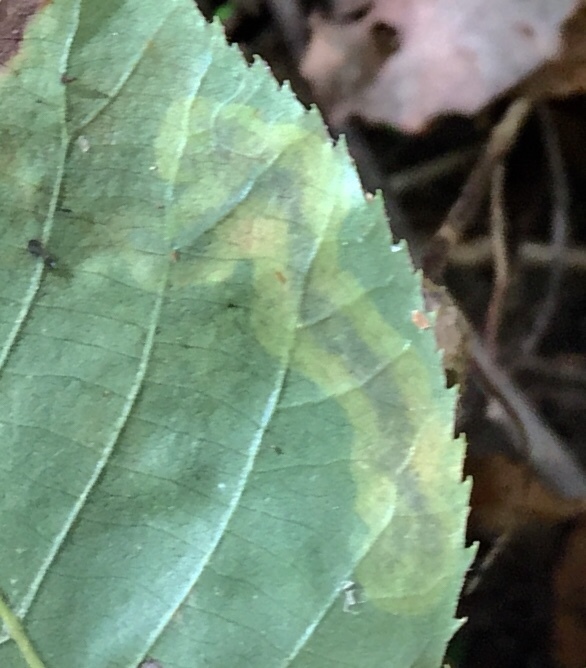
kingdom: Animalia
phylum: Arthropoda
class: Insecta
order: Lepidoptera
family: Gracillariidae
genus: Cameraria
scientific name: Cameraria caryaefoliella
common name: Pecan leafminer moth
